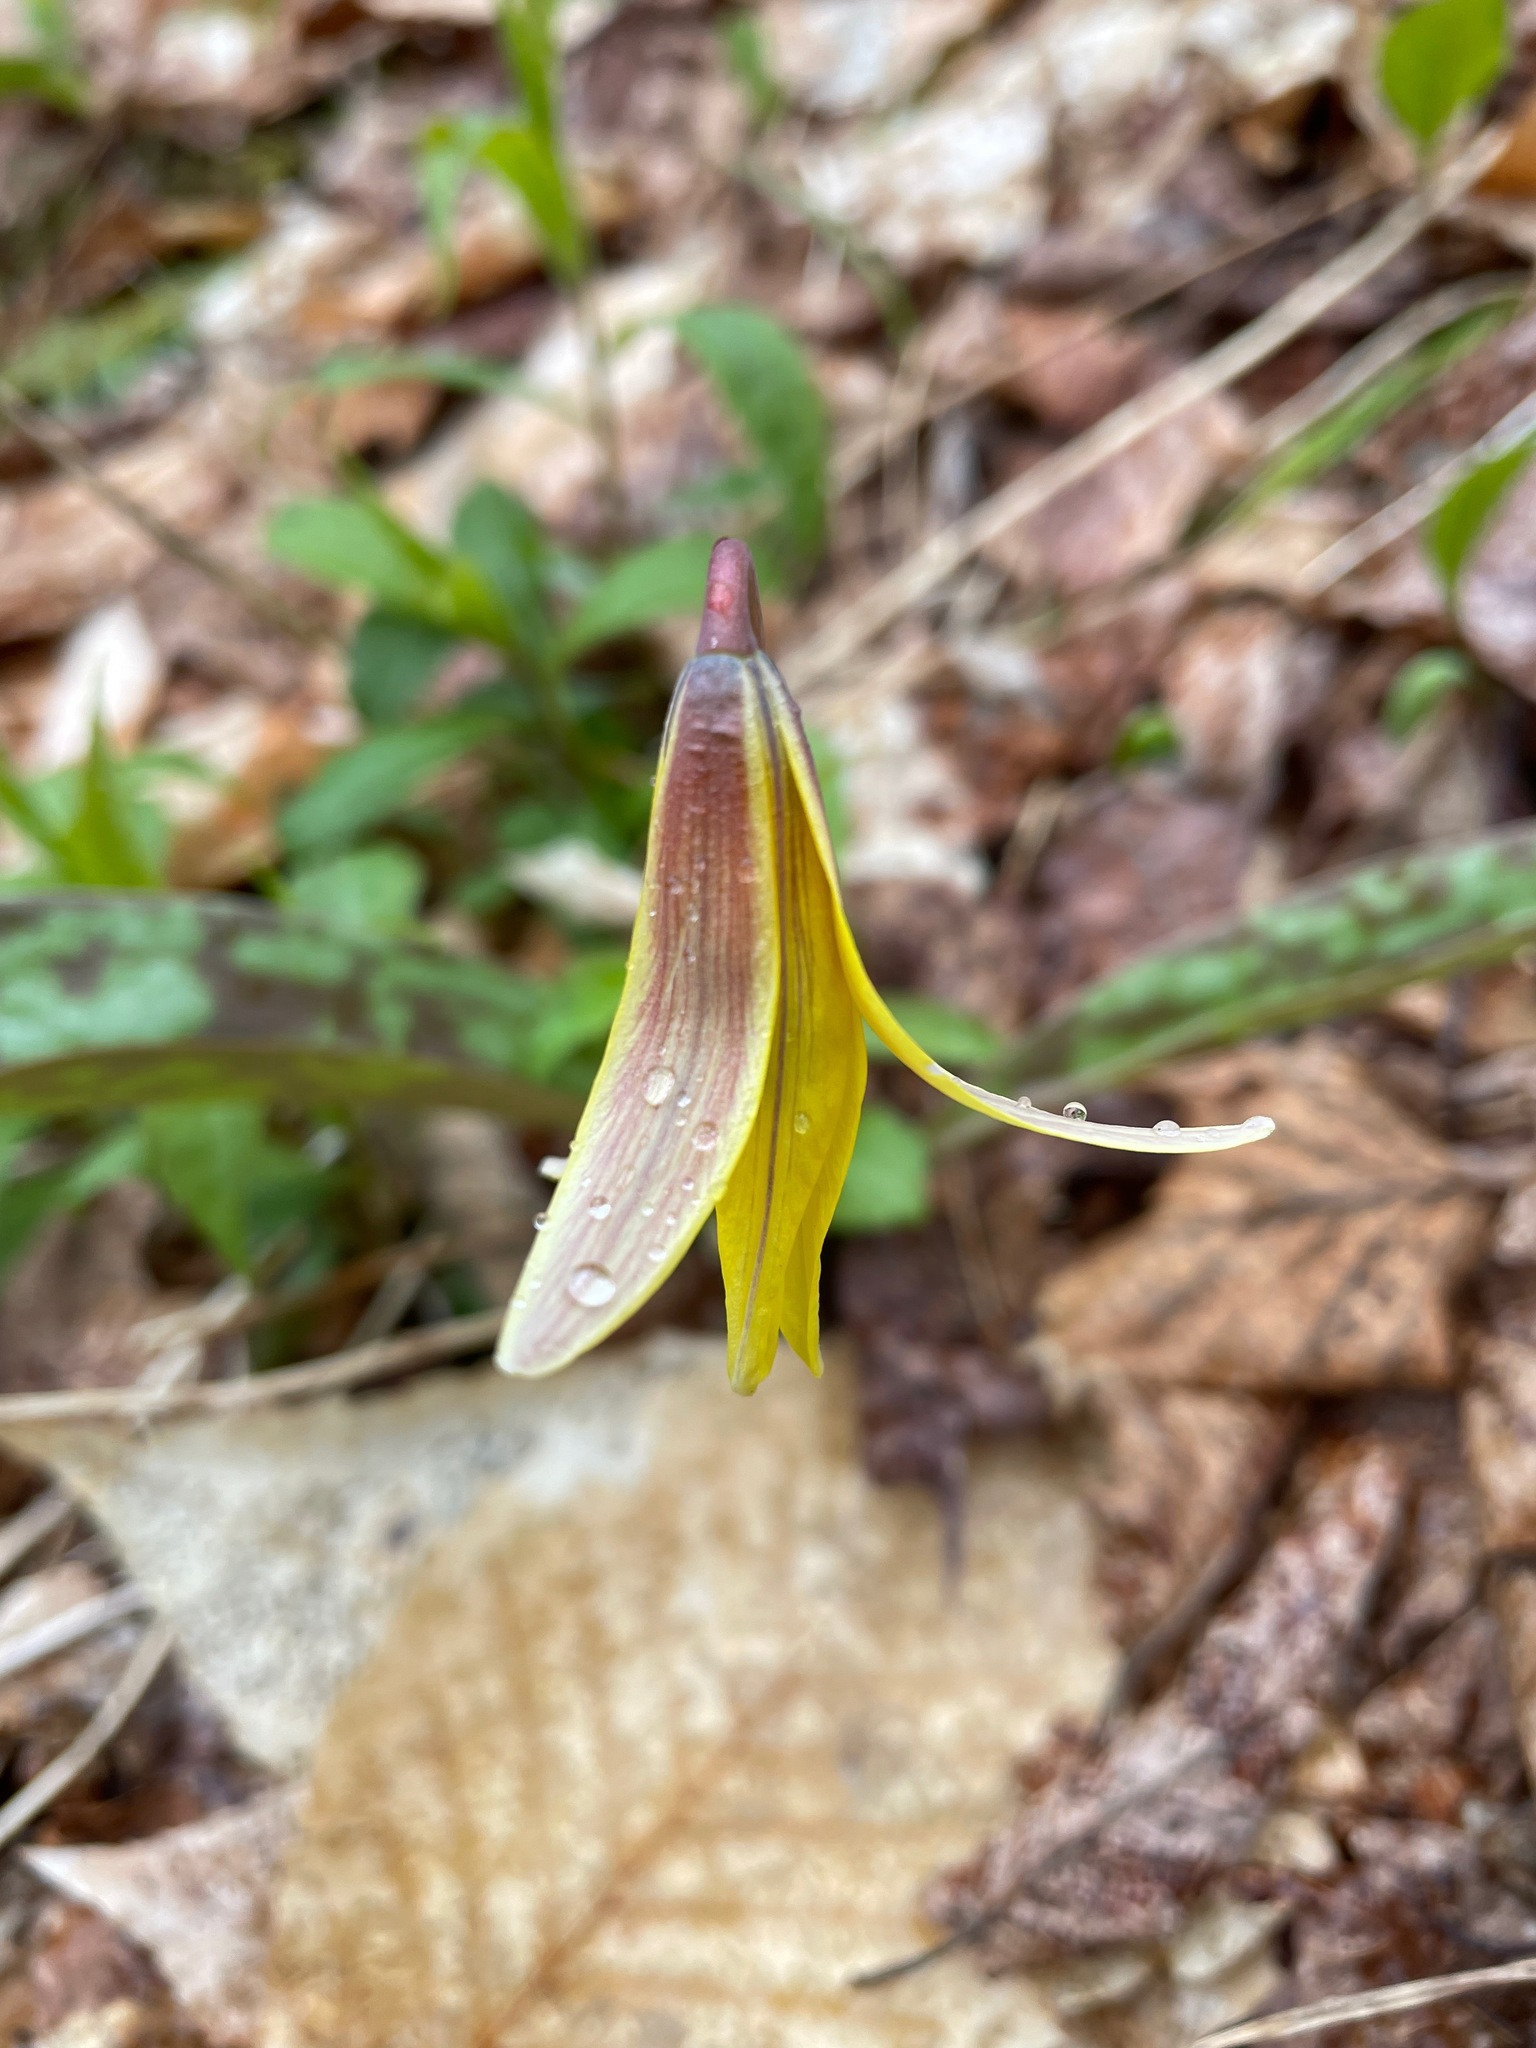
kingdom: Plantae
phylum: Tracheophyta
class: Liliopsida
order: Liliales
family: Liliaceae
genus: Erythronium
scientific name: Erythronium americanum
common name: Yellow adder's-tongue
